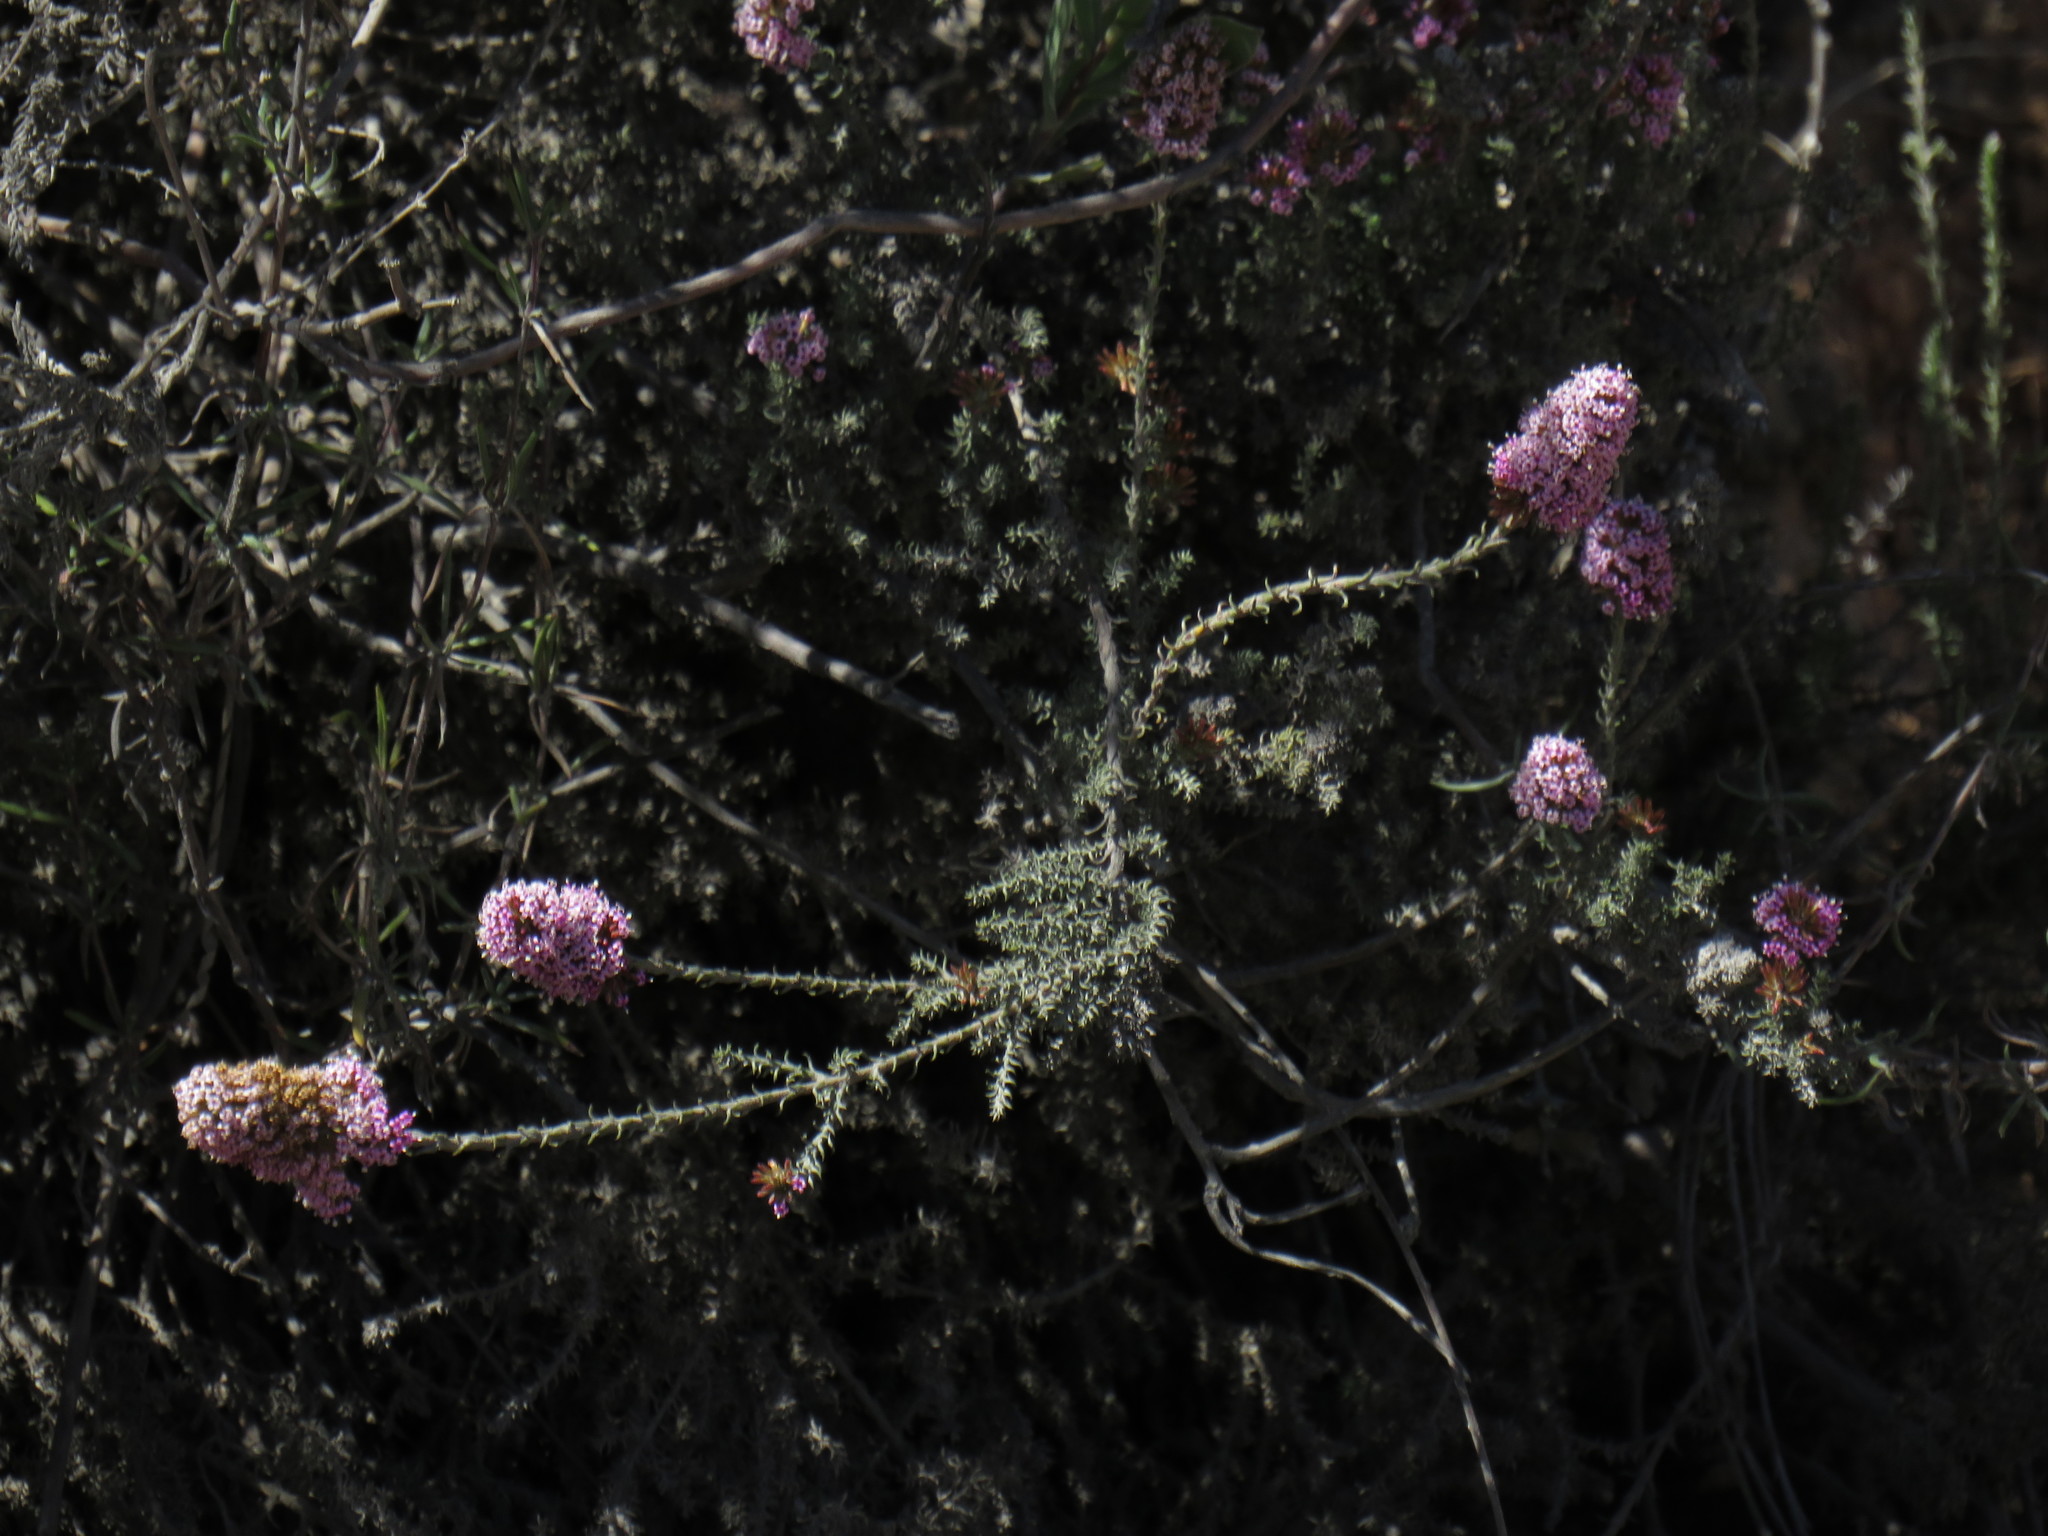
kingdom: Plantae
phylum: Tracheophyta
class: Magnoliopsida
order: Asterales
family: Asteraceae
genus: Stoebe
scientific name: Stoebe capitata
